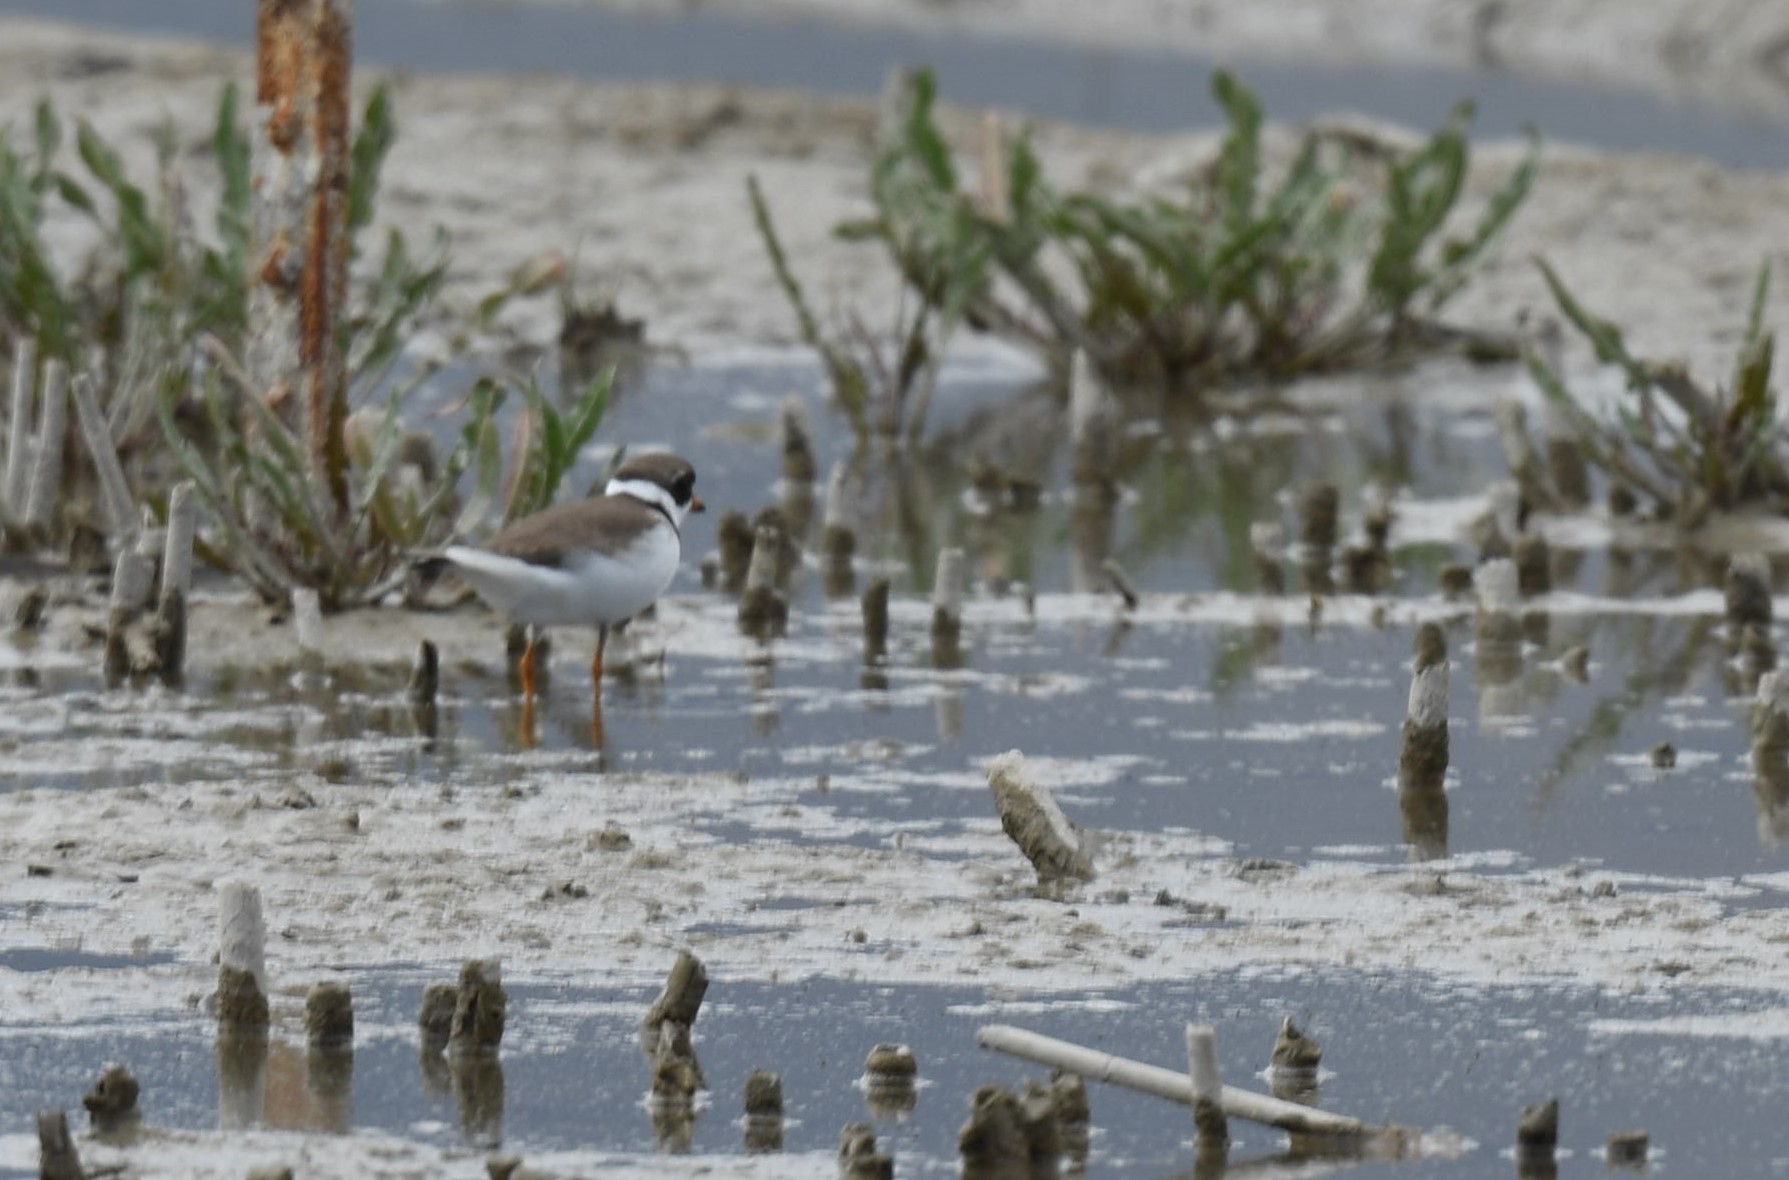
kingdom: Animalia
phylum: Chordata
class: Aves
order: Charadriiformes
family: Charadriidae
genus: Charadrius
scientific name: Charadrius semipalmatus
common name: Semipalmated plover
